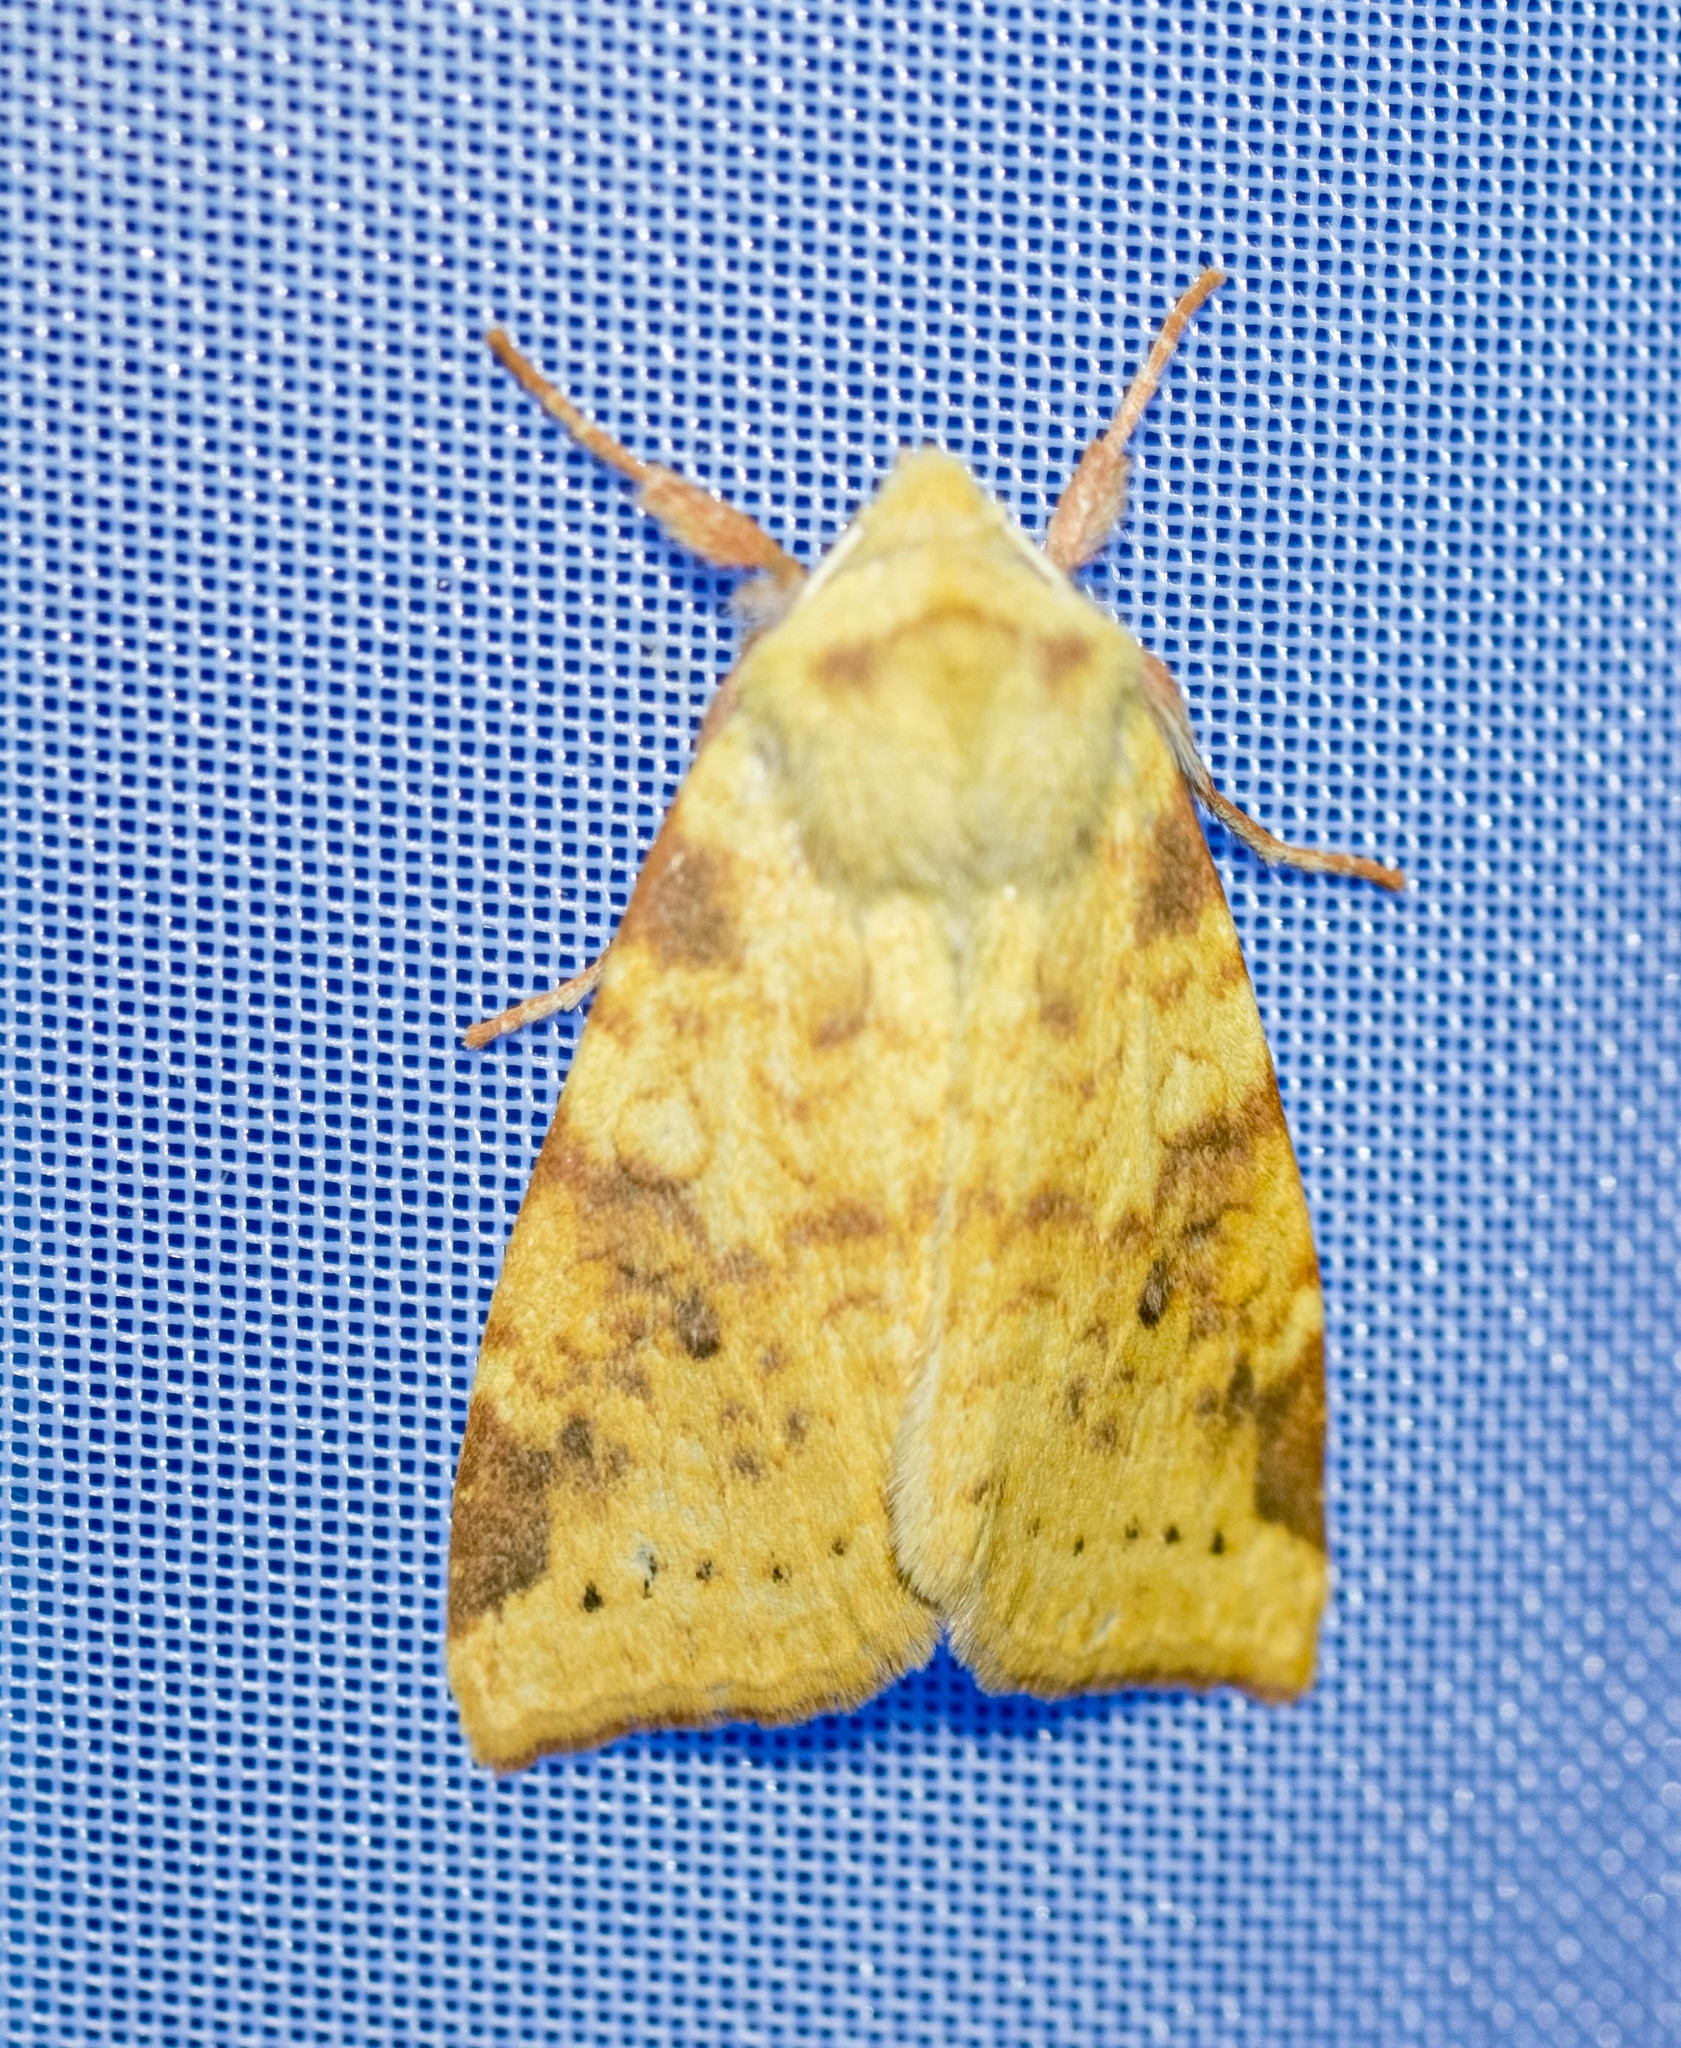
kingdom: Animalia
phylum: Arthropoda
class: Insecta
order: Lepidoptera
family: Noctuidae
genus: Xanthia
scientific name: Xanthia icteritia
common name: The sallow
